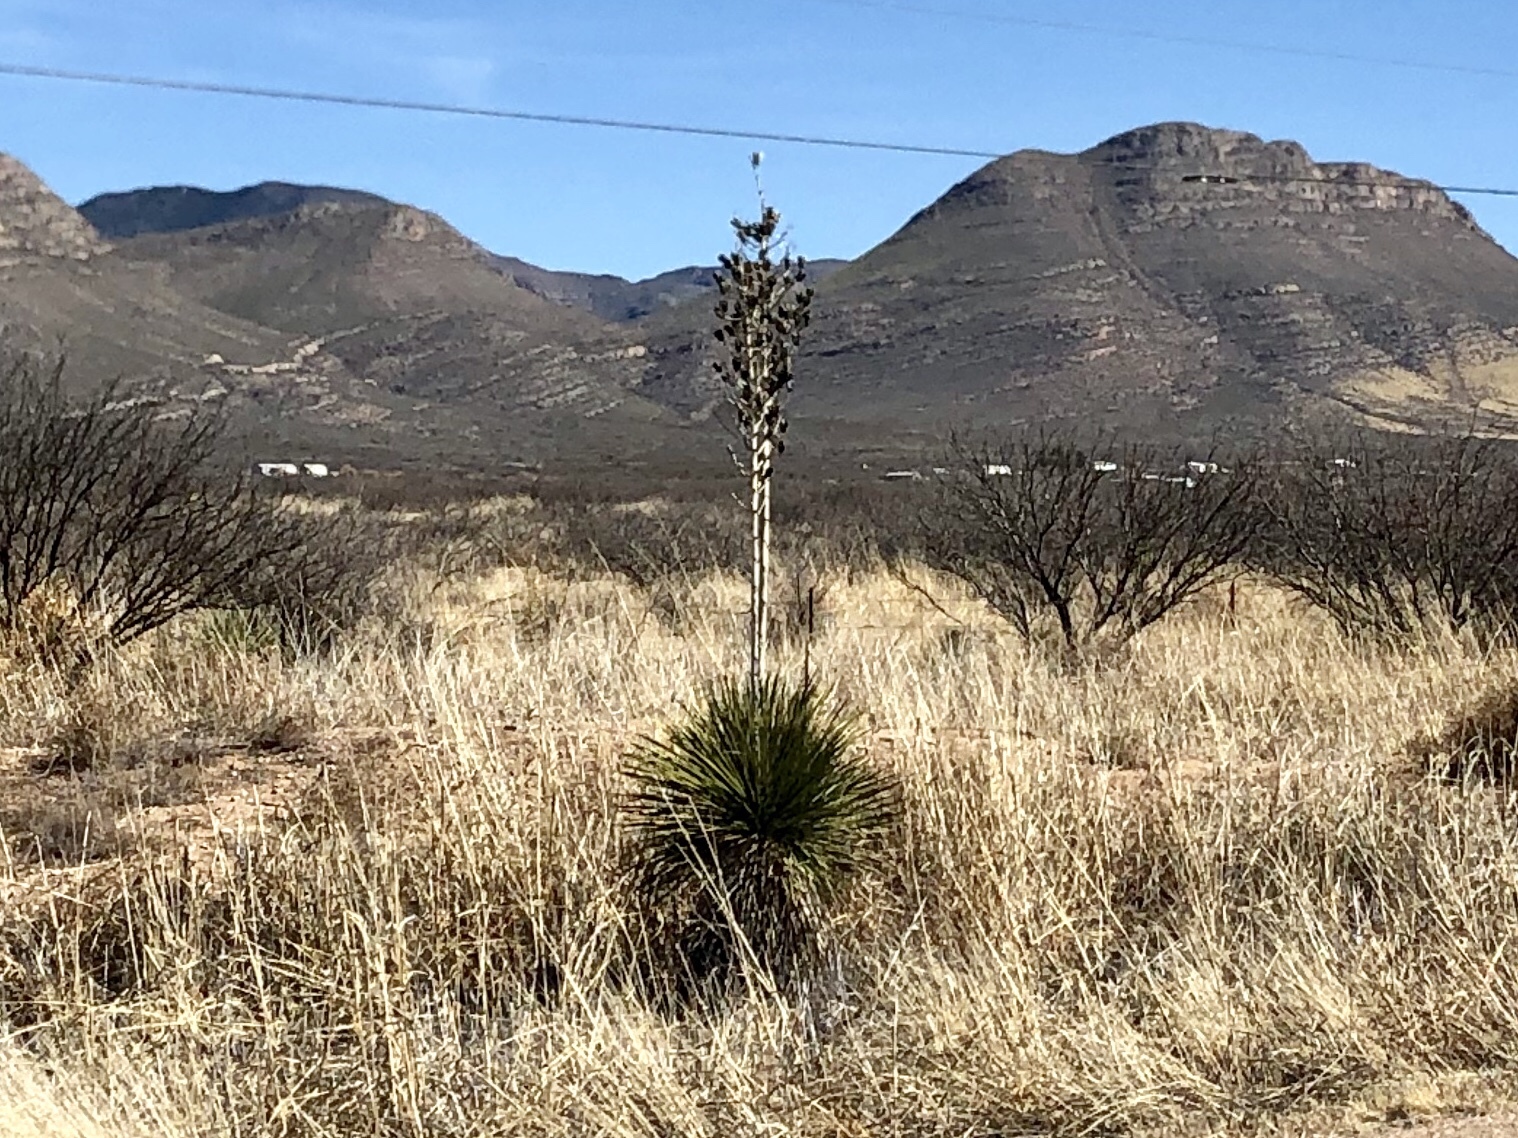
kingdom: Plantae
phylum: Tracheophyta
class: Liliopsida
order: Asparagales
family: Asparagaceae
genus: Yucca
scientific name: Yucca elata
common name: Palmella
